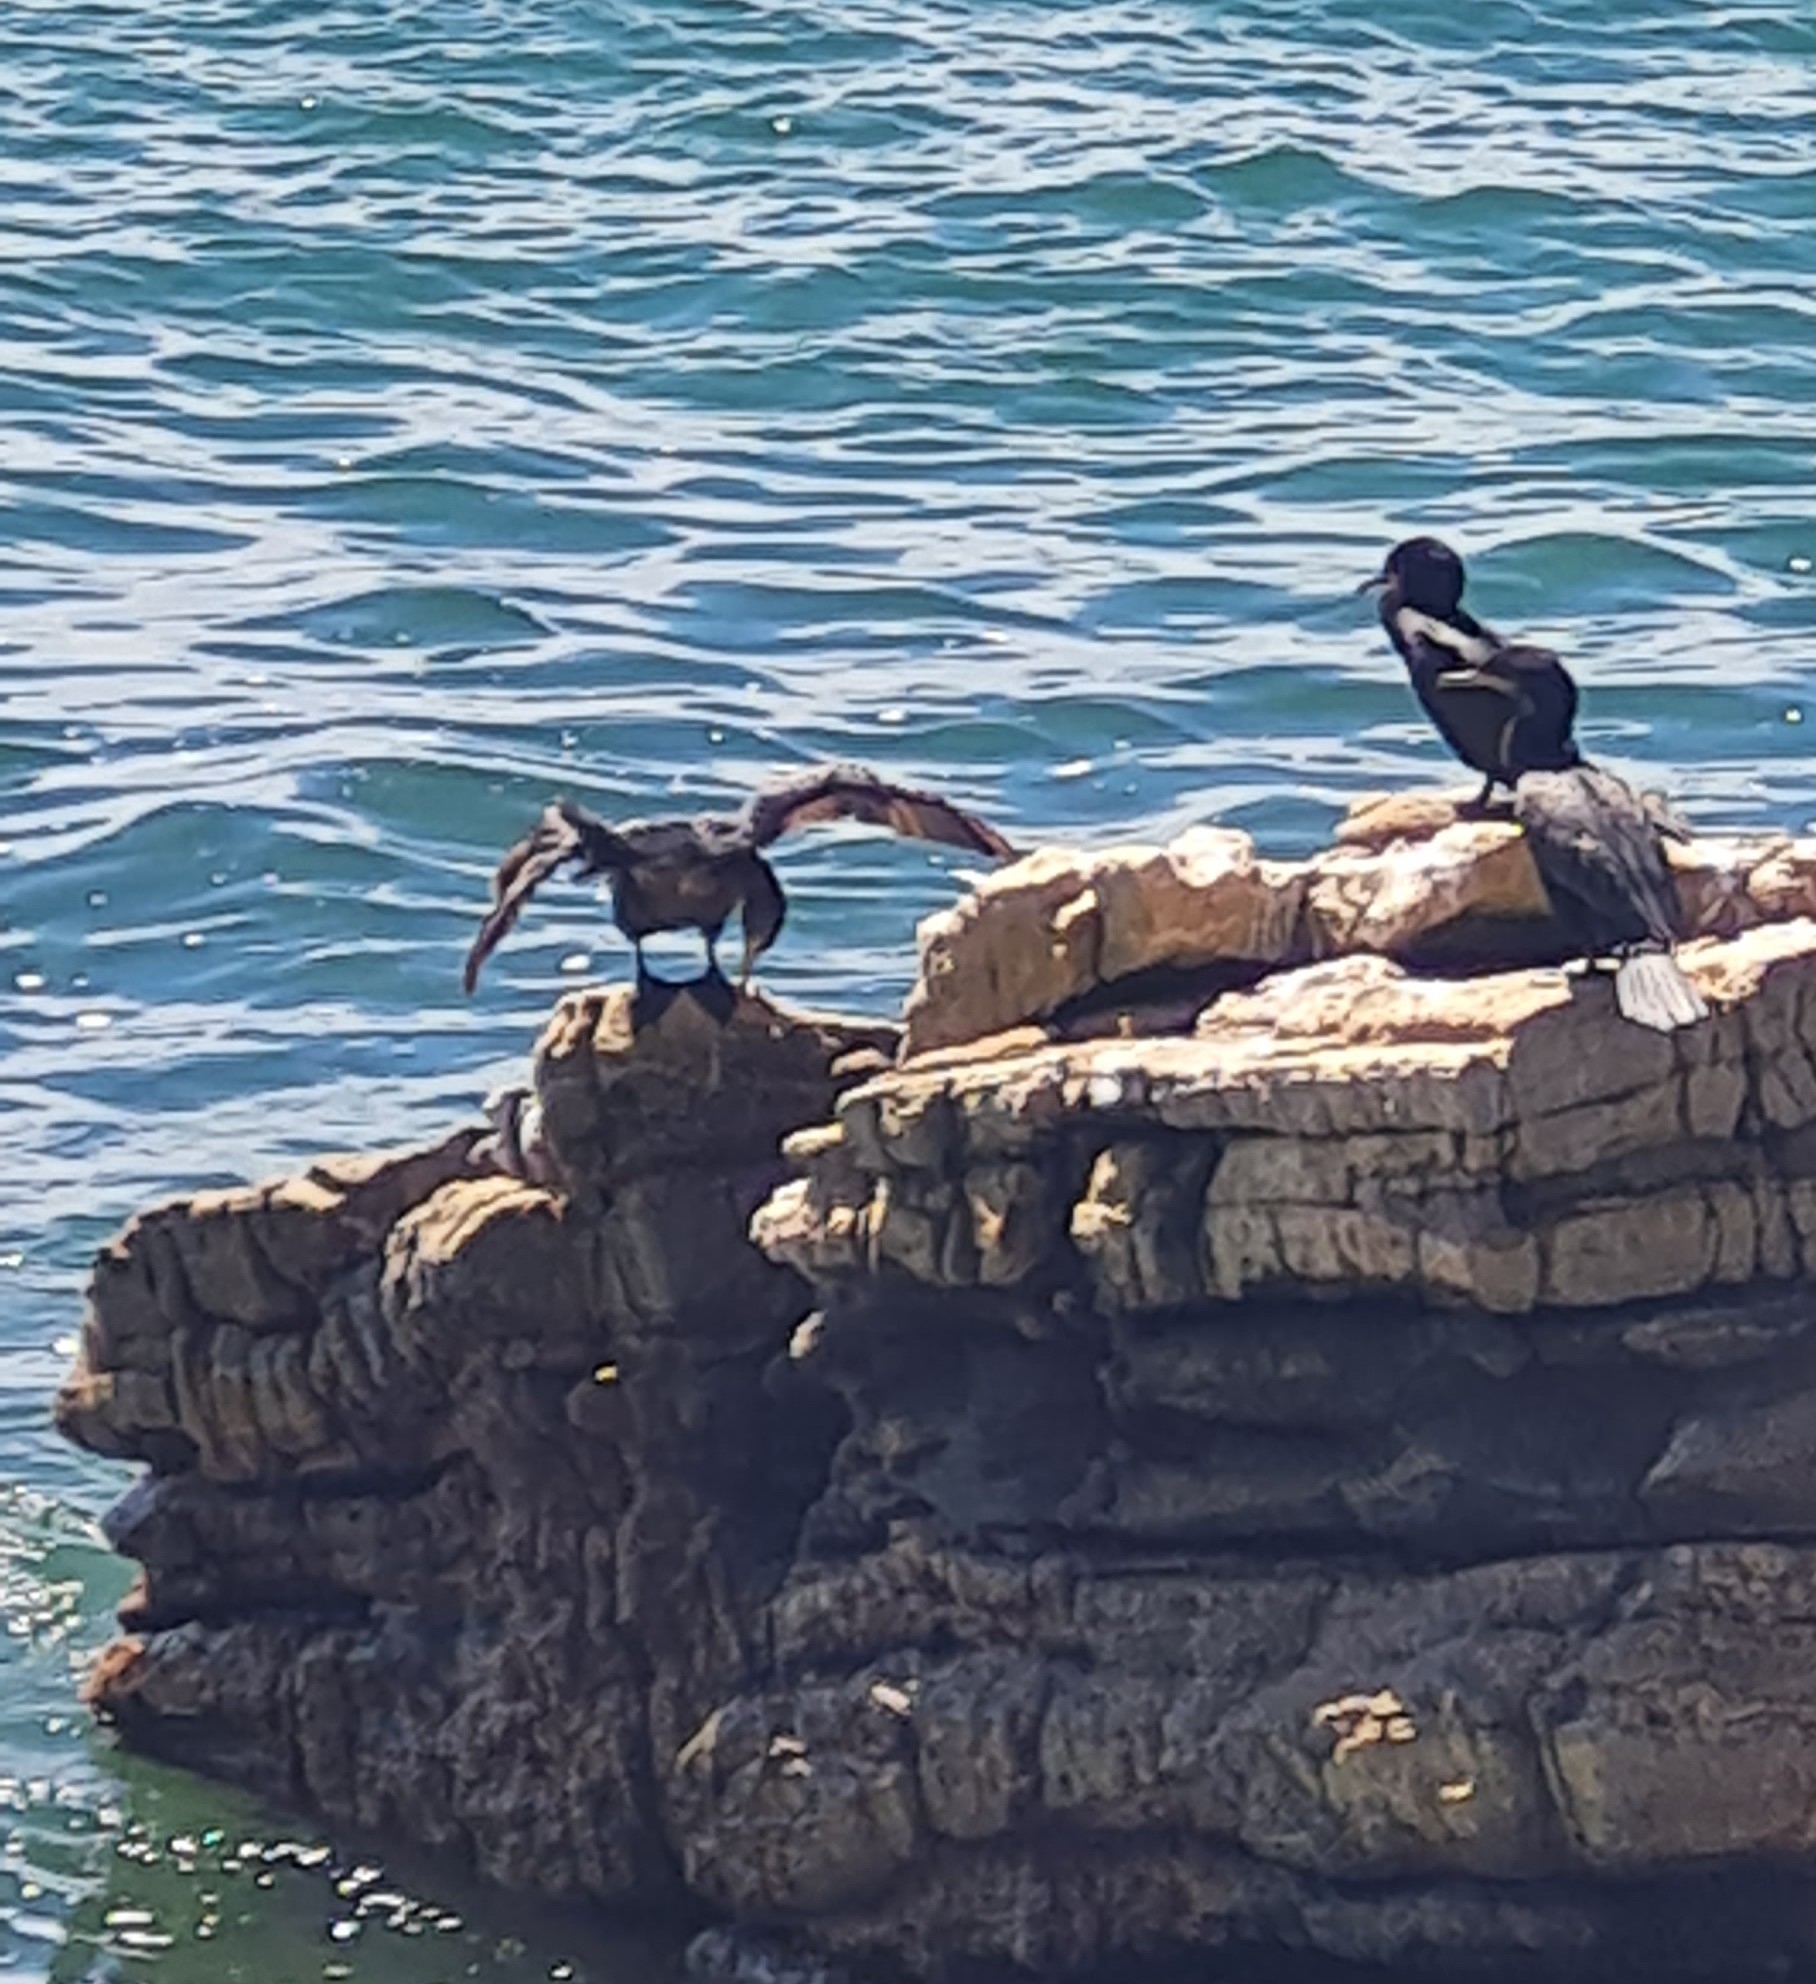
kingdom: Animalia
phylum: Chordata
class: Aves
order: Suliformes
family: Phalacrocoracidae
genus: Phalacrocorax
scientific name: Phalacrocorax brasilianus
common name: Neotropic cormorant
